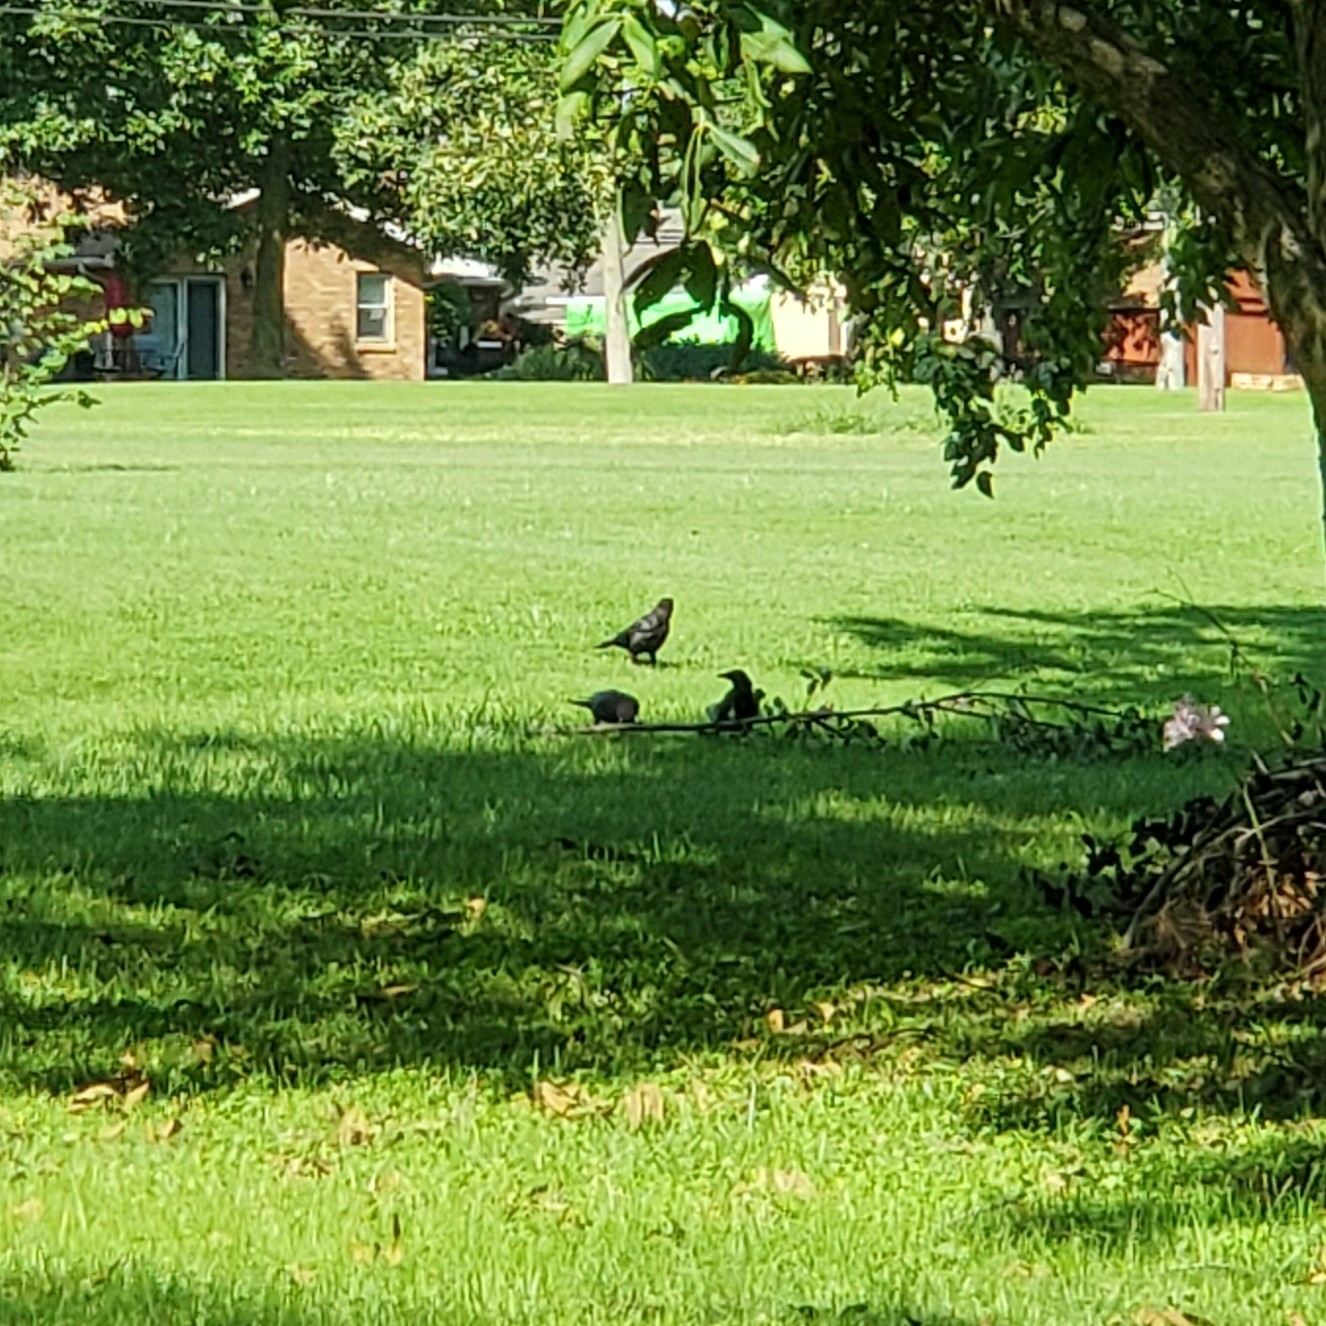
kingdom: Animalia
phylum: Chordata
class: Aves
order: Passeriformes
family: Corvidae
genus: Corvus
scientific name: Corvus brachyrhynchos
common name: American crow
